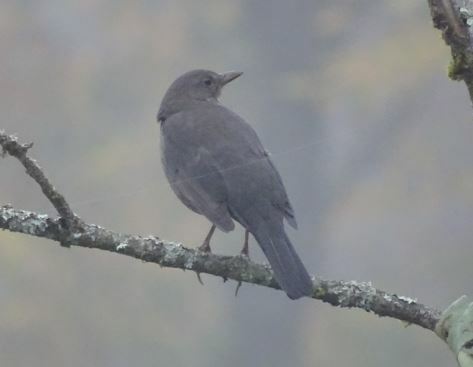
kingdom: Animalia
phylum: Chordata
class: Aves
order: Passeriformes
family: Turdidae
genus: Turdus
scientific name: Turdus merula
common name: Common blackbird
